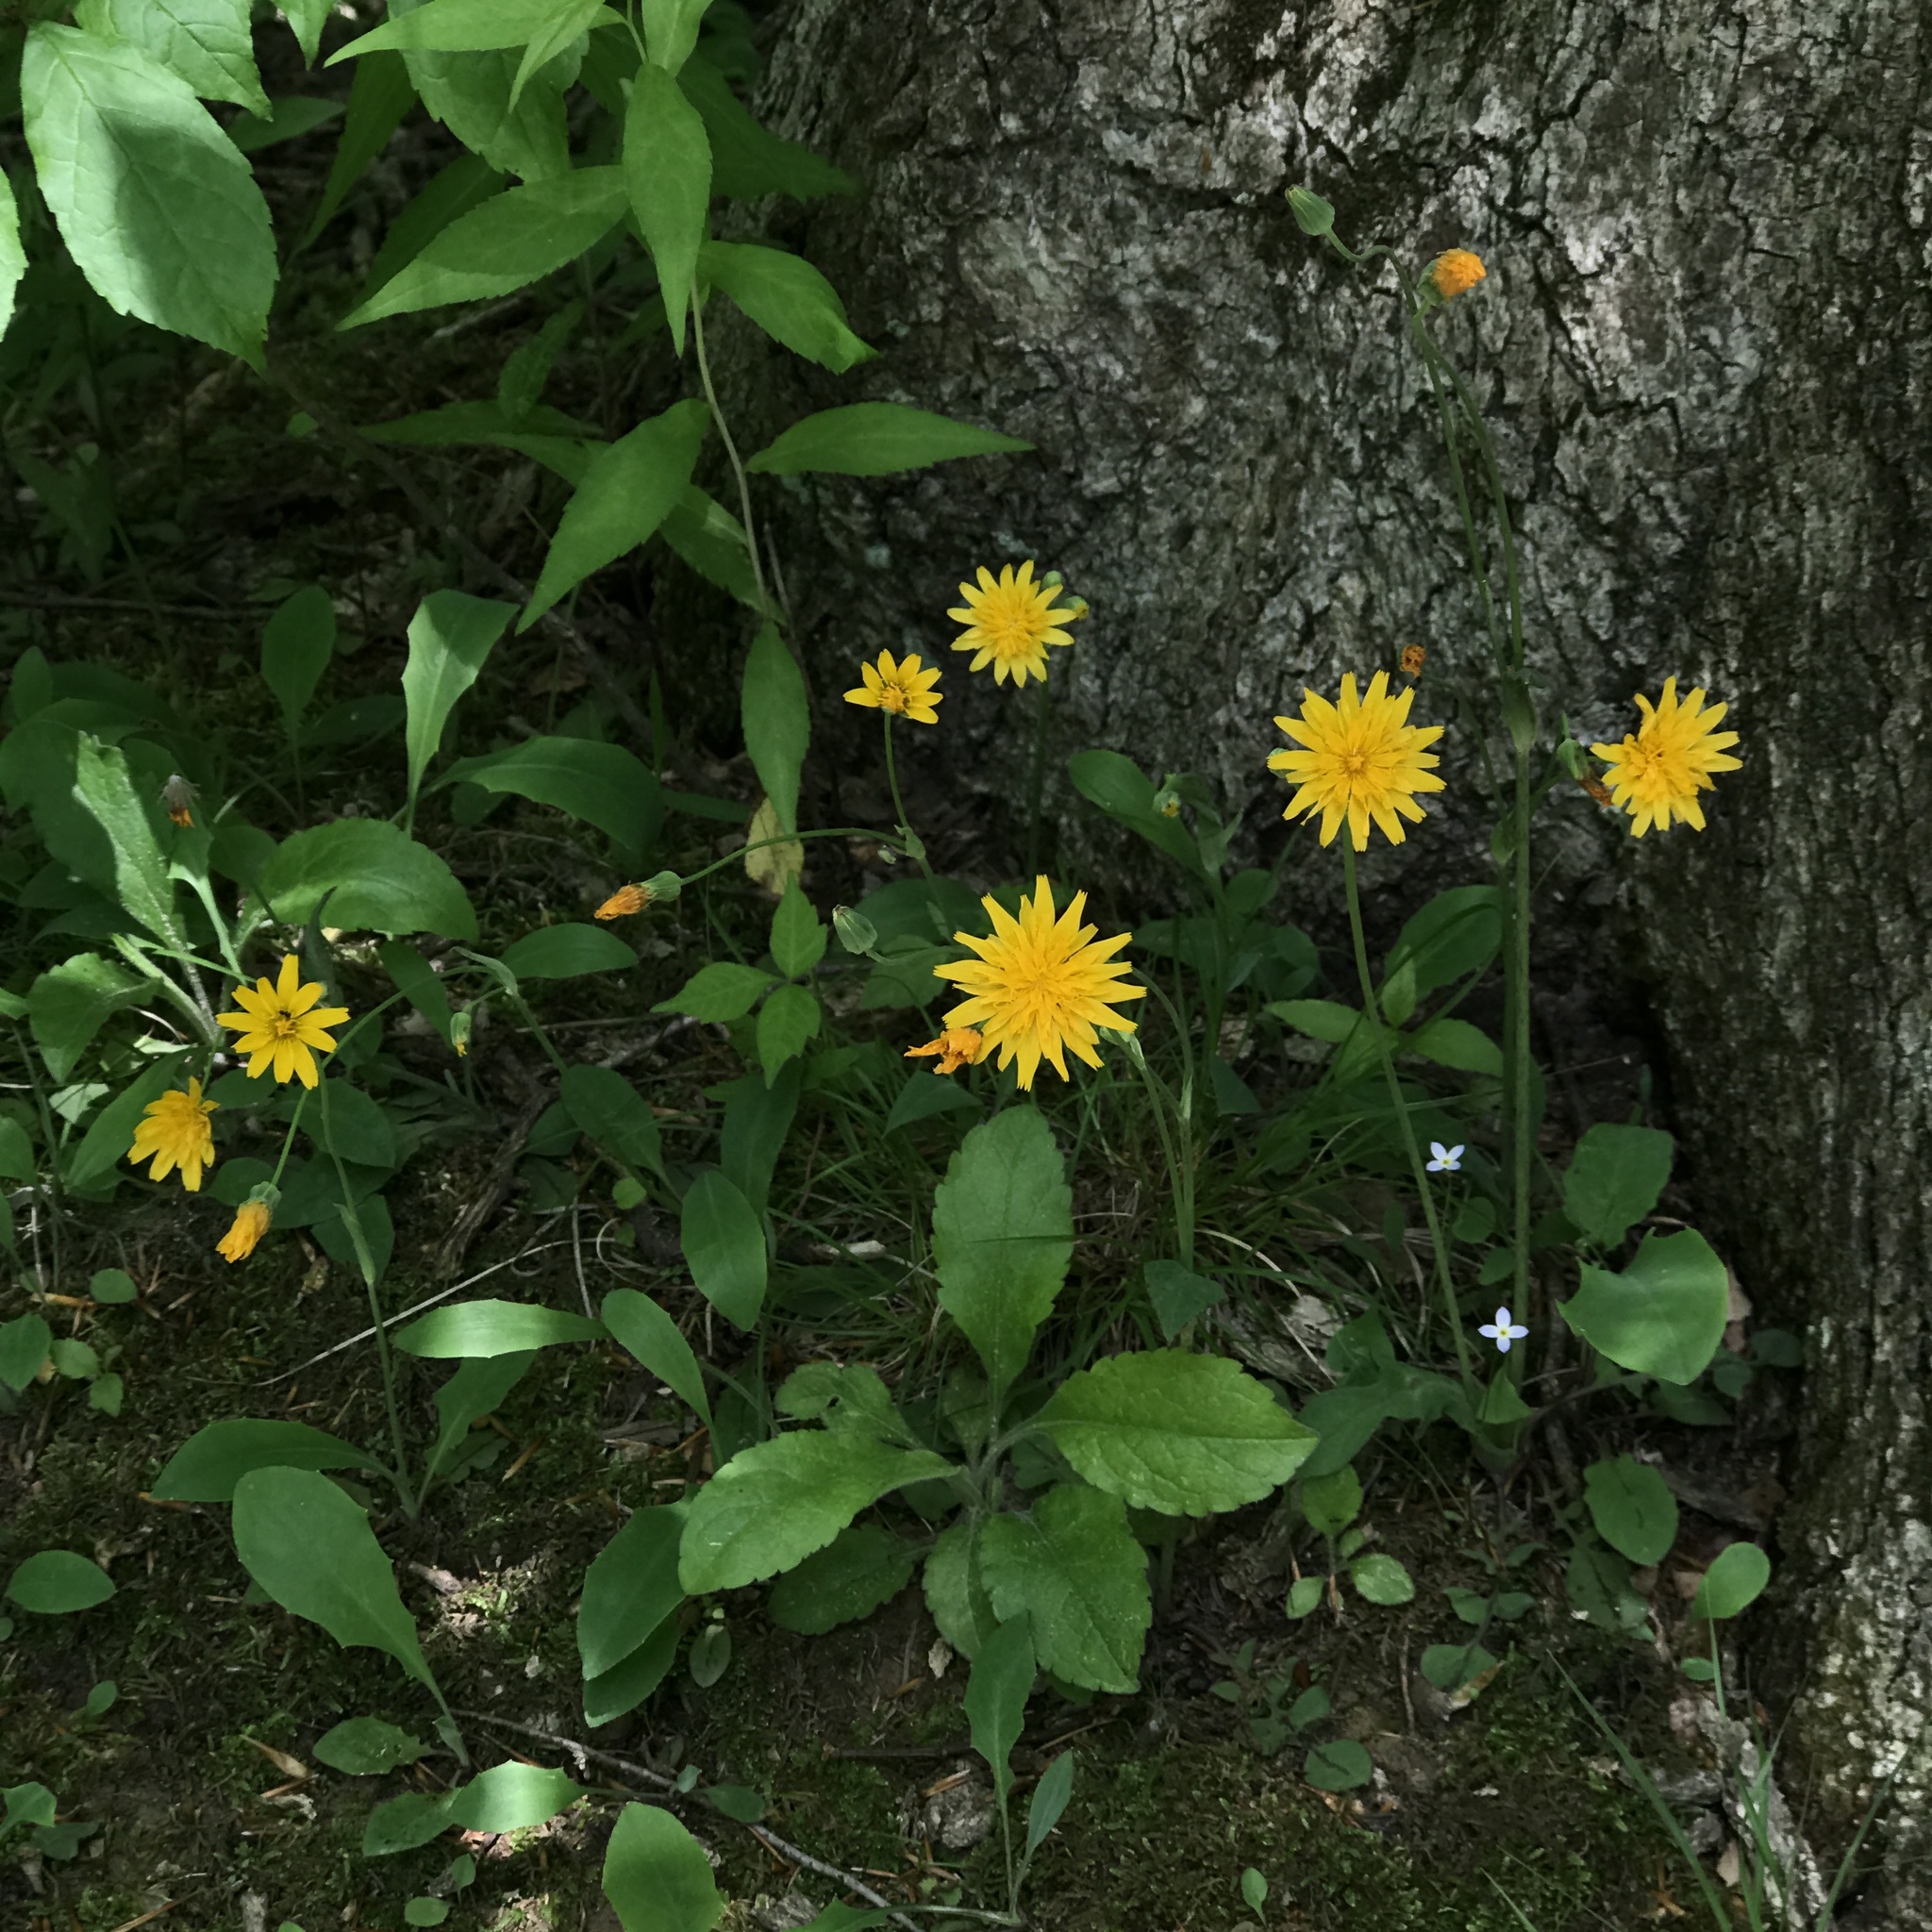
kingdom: Plantae
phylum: Tracheophyta
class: Magnoliopsida
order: Asterales
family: Asteraceae
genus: Krigia
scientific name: Krigia biflora
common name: Orange dwarf-dandelion
